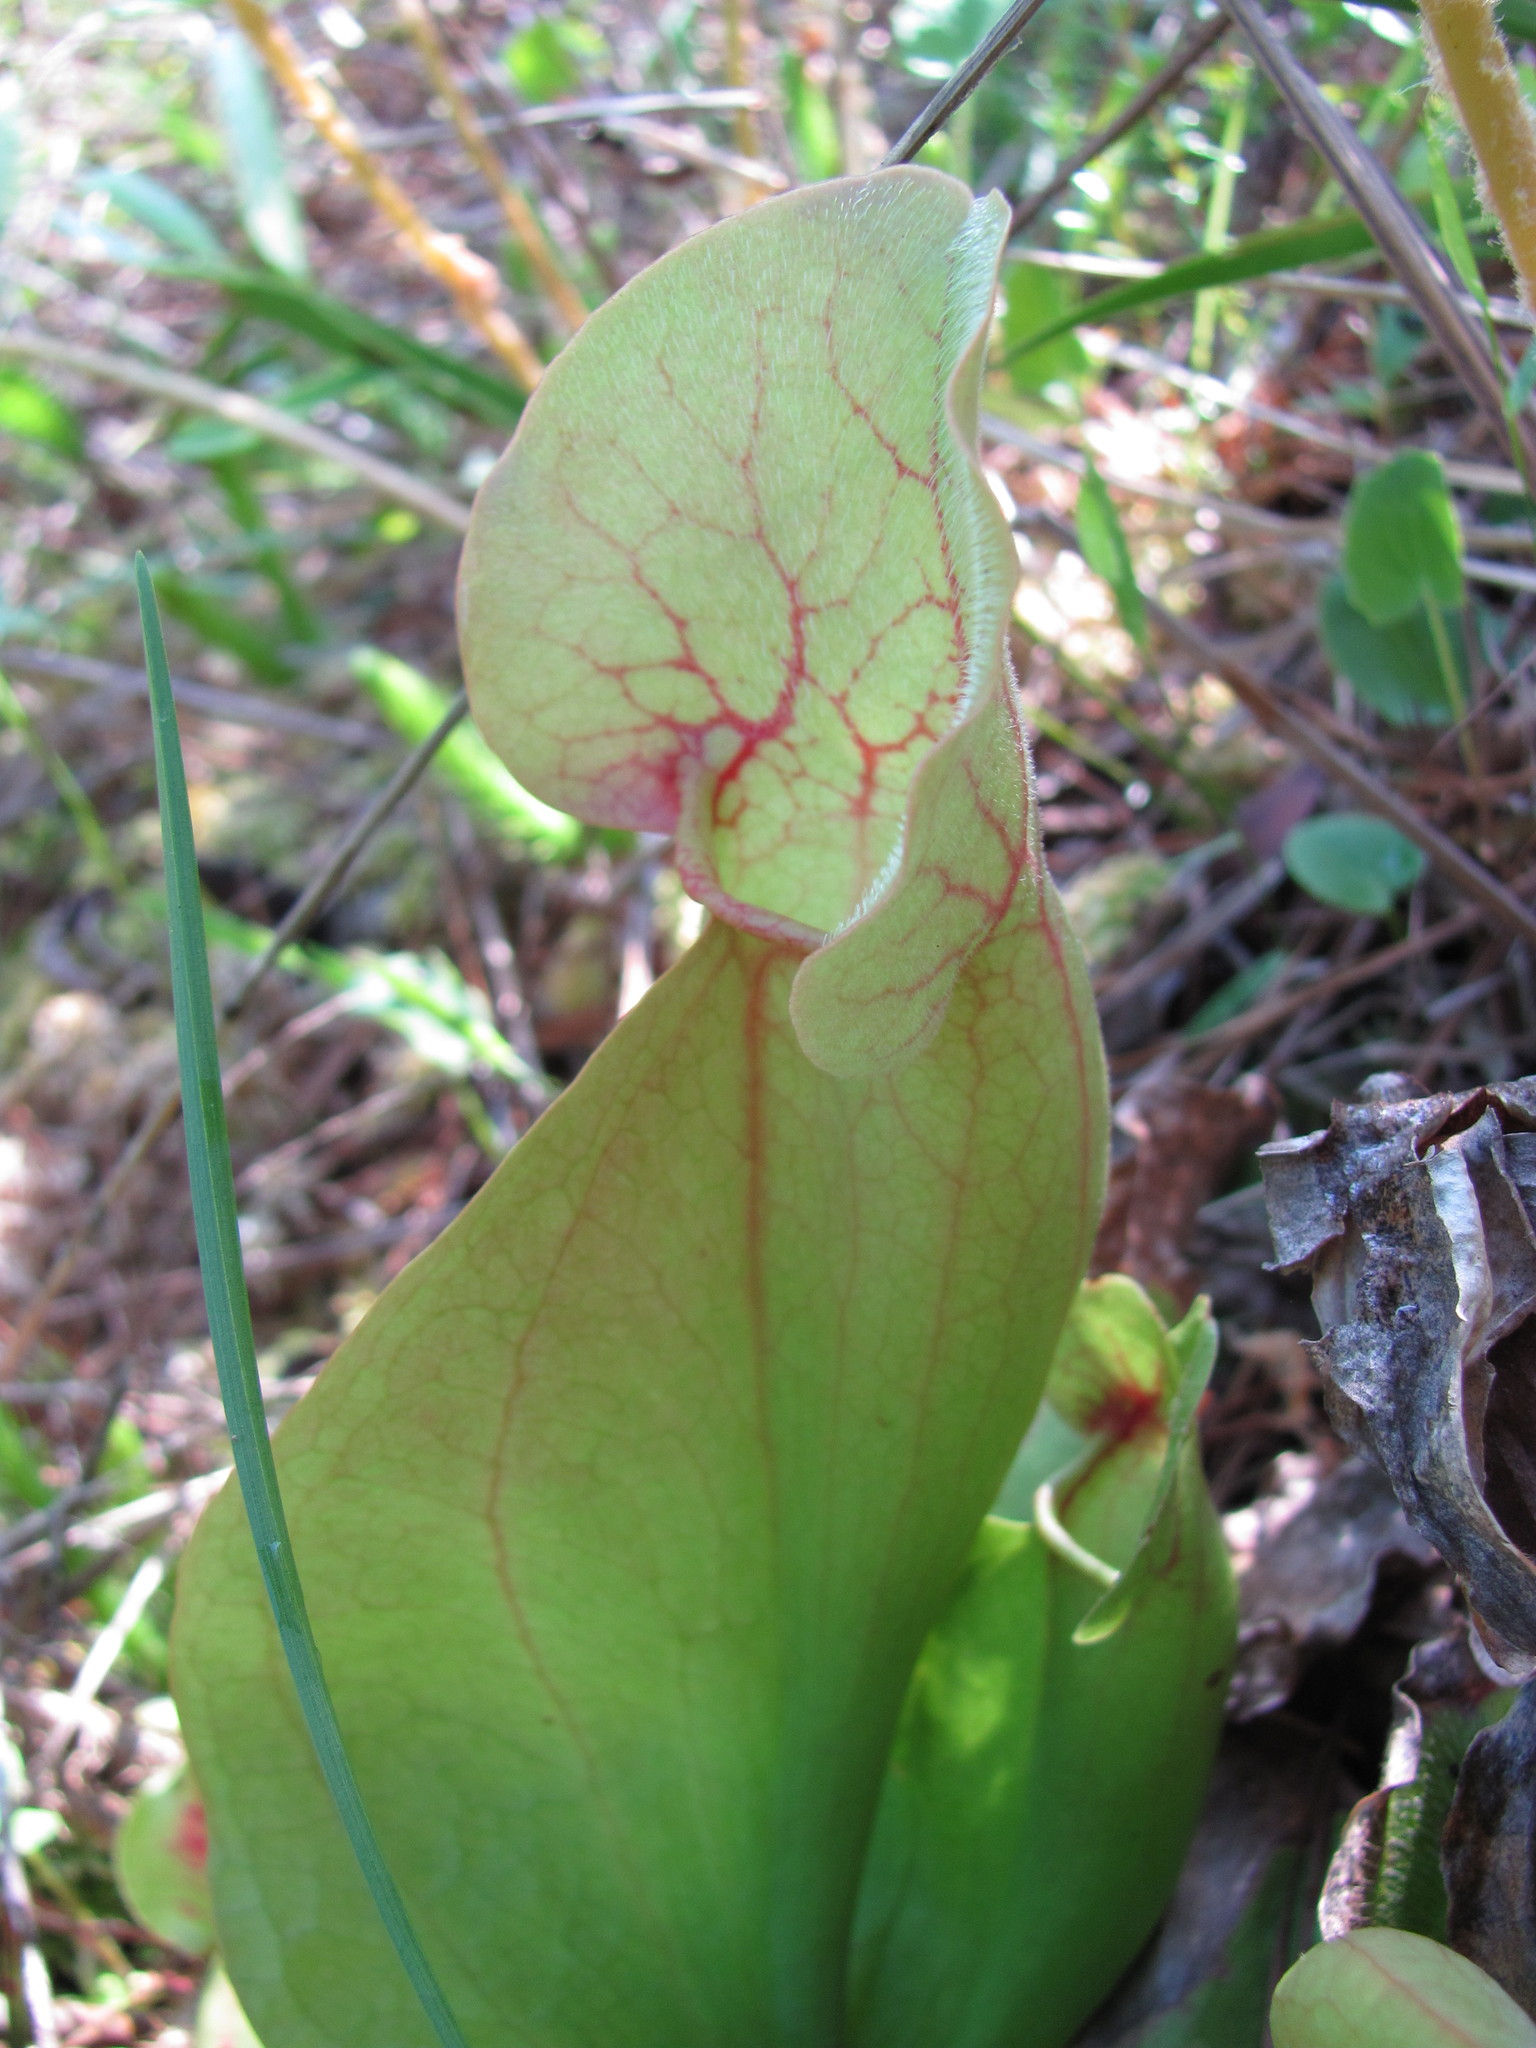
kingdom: Plantae
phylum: Tracheophyta
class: Magnoliopsida
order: Ericales
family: Sarraceniaceae
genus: Sarracenia
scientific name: Sarracenia rosea
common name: Pink pitcherplant
